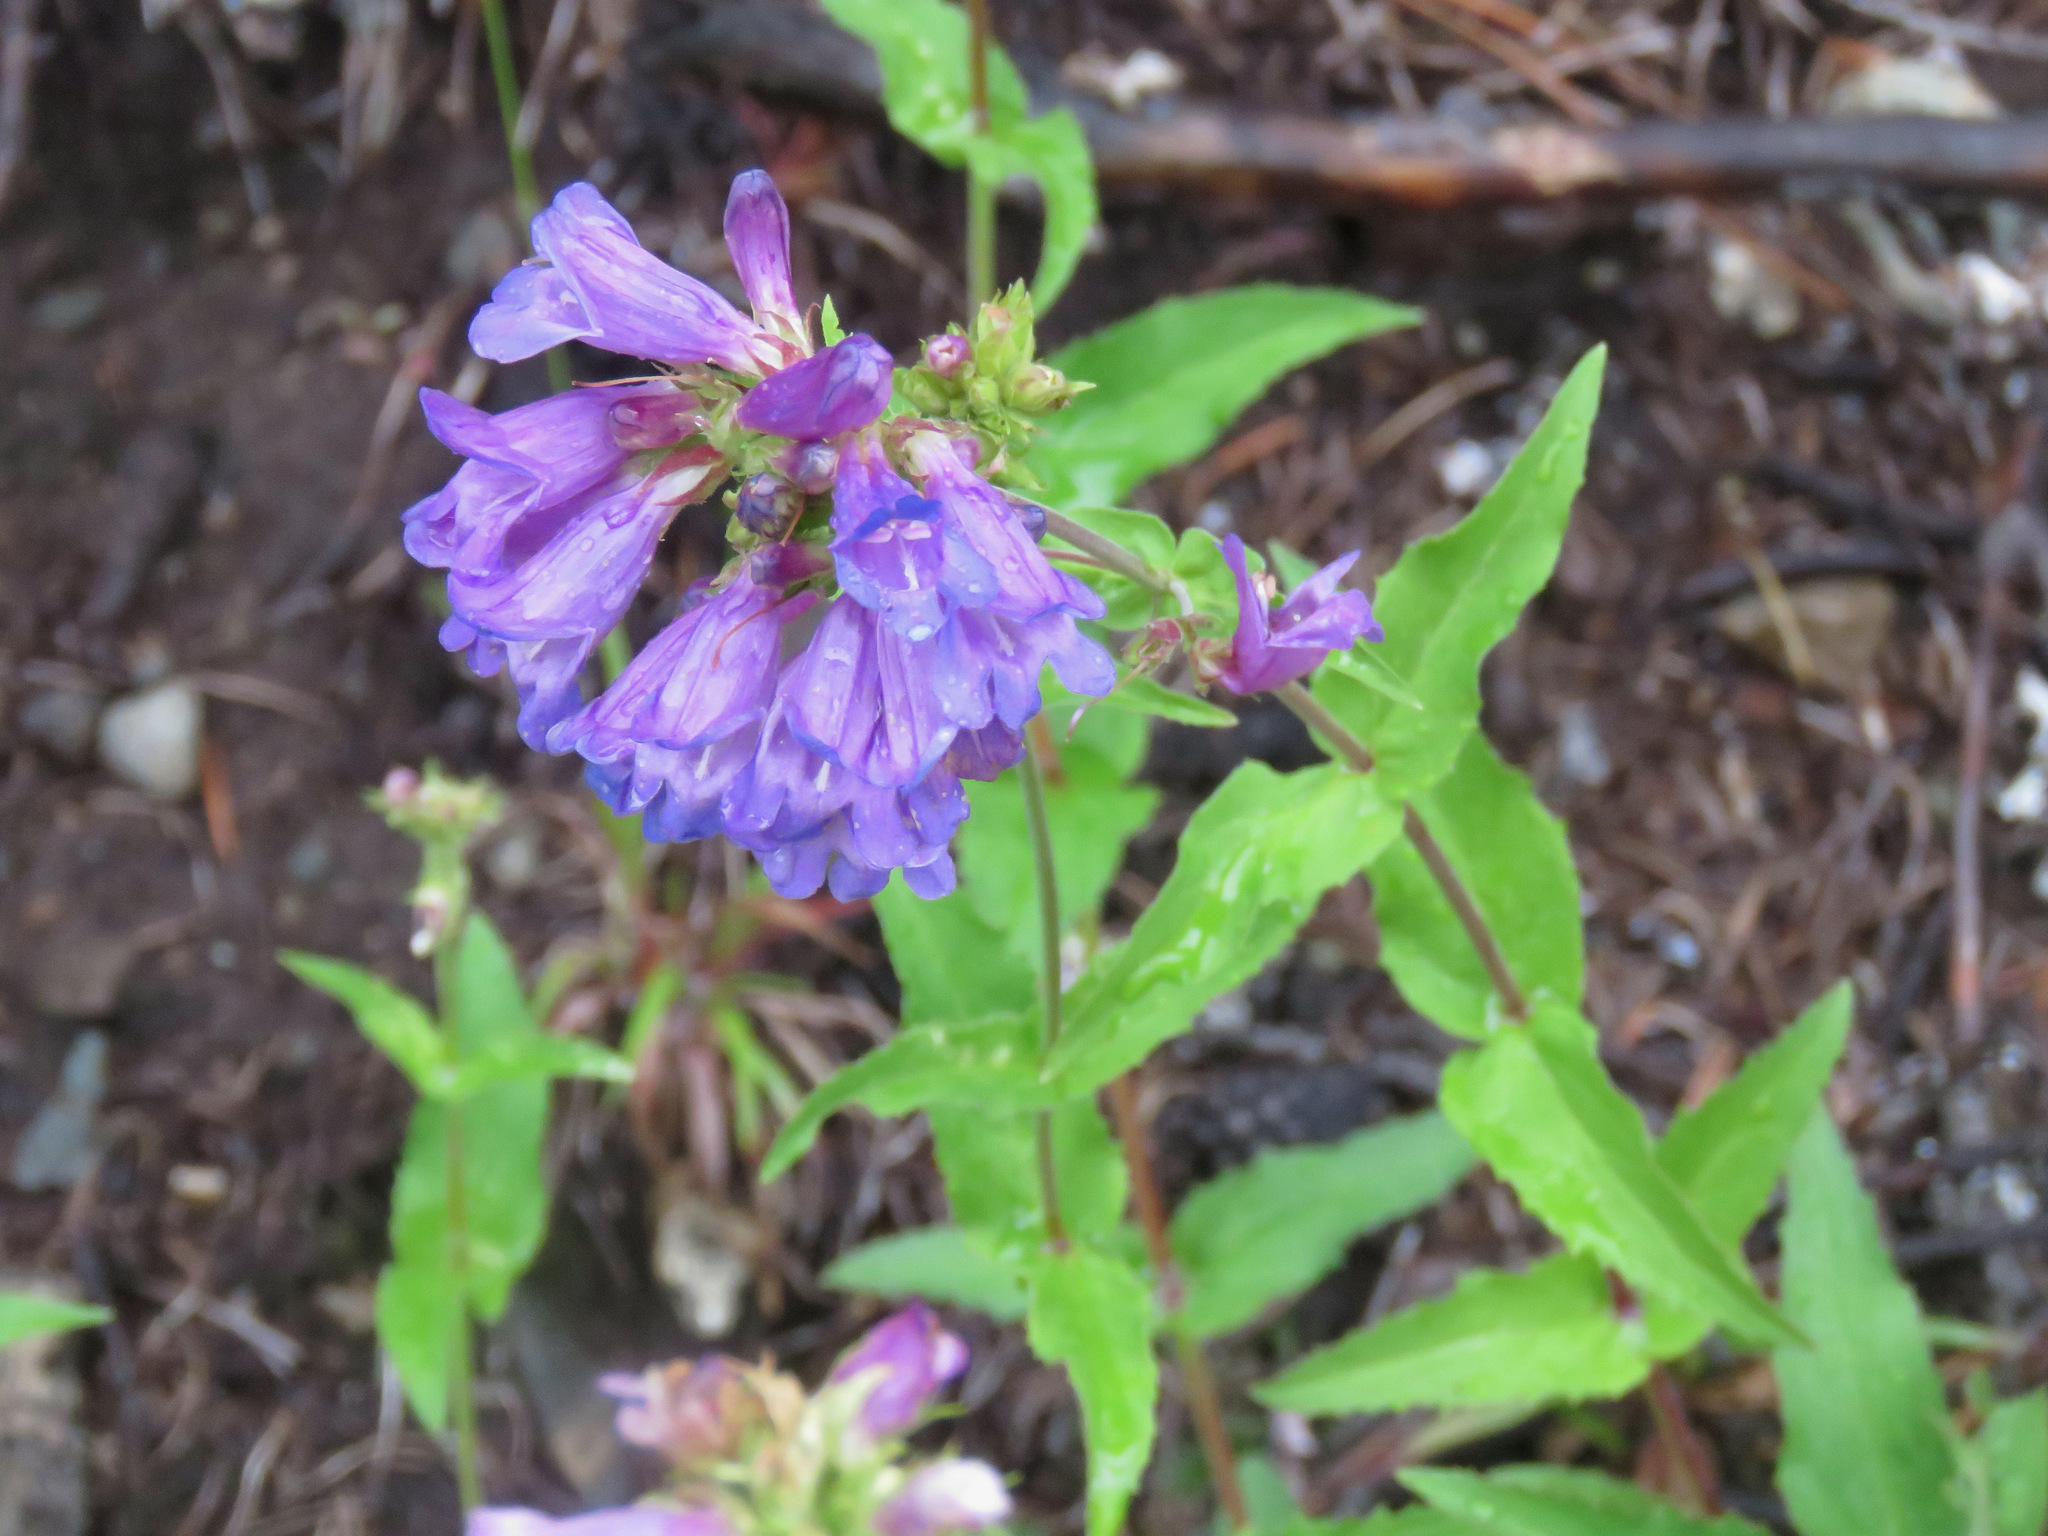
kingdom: Plantae
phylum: Tracheophyta
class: Magnoliopsida
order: Lamiales
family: Plantaginaceae
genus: Penstemon
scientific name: Penstemon serrulatus
